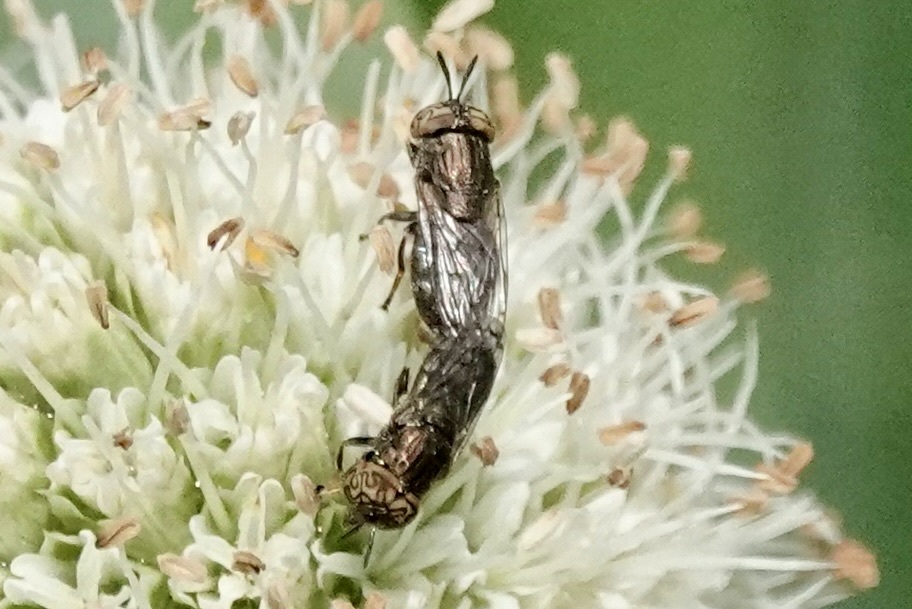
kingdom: Animalia
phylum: Arthropoda
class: Insecta
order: Diptera
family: Syrphidae
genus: Orthonevra
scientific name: Orthonevra nitida
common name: Wavy mucksucker
